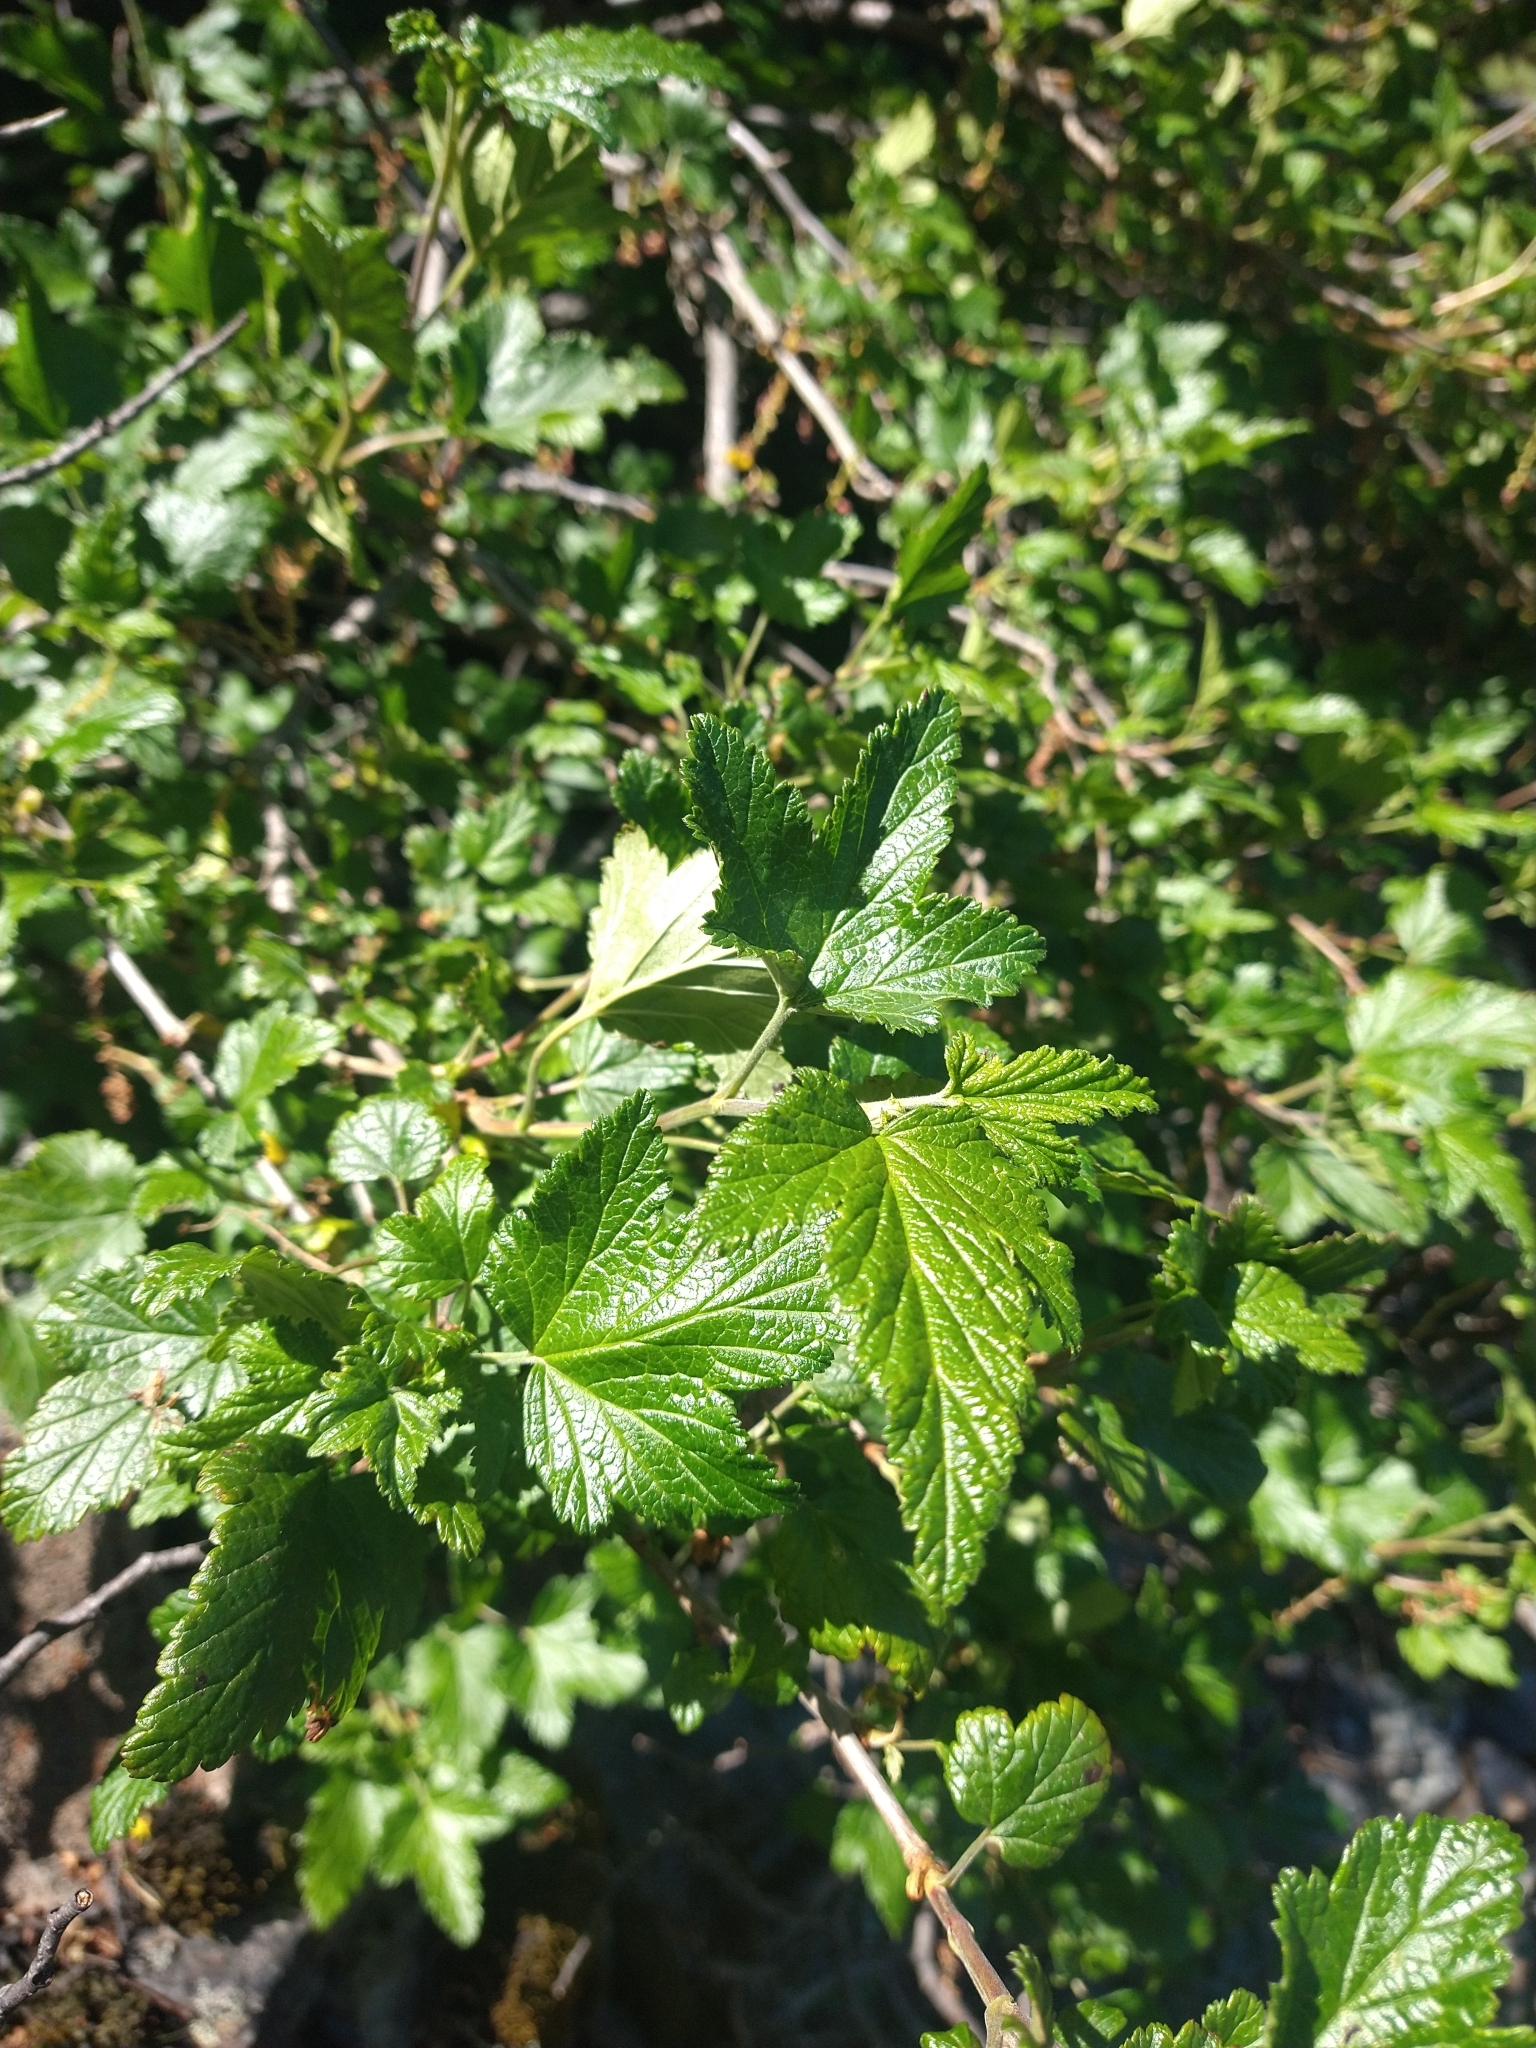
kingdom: Plantae
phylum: Tracheophyta
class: Magnoliopsida
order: Saxifragales
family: Grossulariaceae
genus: Ribes
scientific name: Ribes magellanicum
